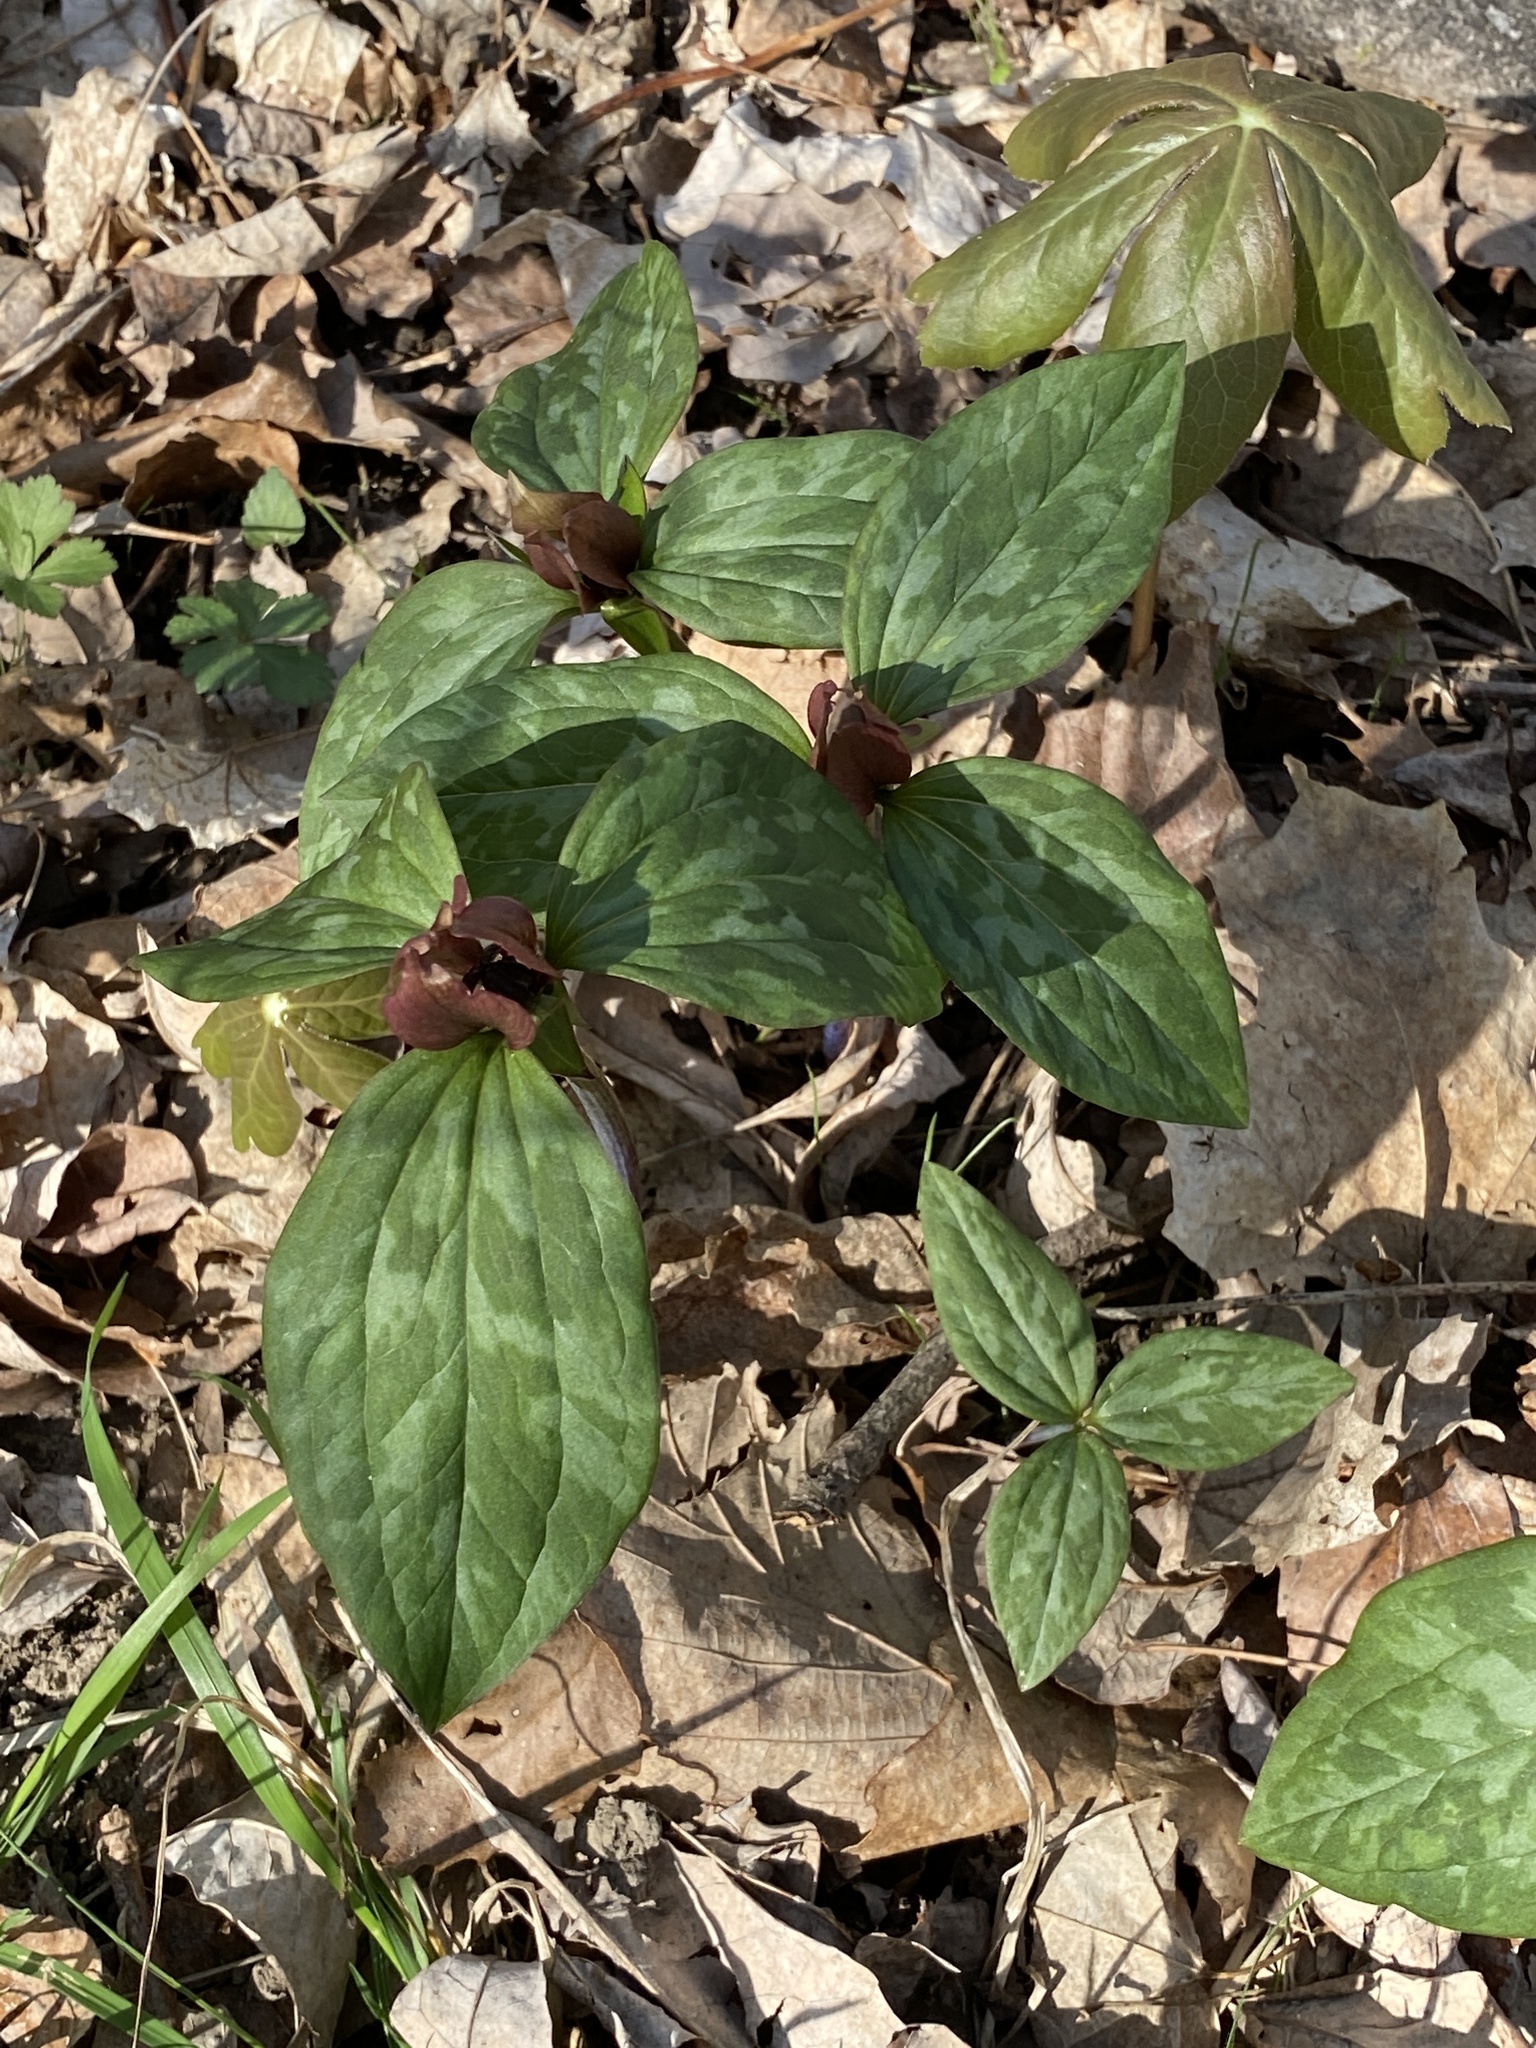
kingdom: Plantae
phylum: Tracheophyta
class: Liliopsida
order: Liliales
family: Melanthiaceae
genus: Trillium
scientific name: Trillium recurvatum
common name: Bloody butcher
